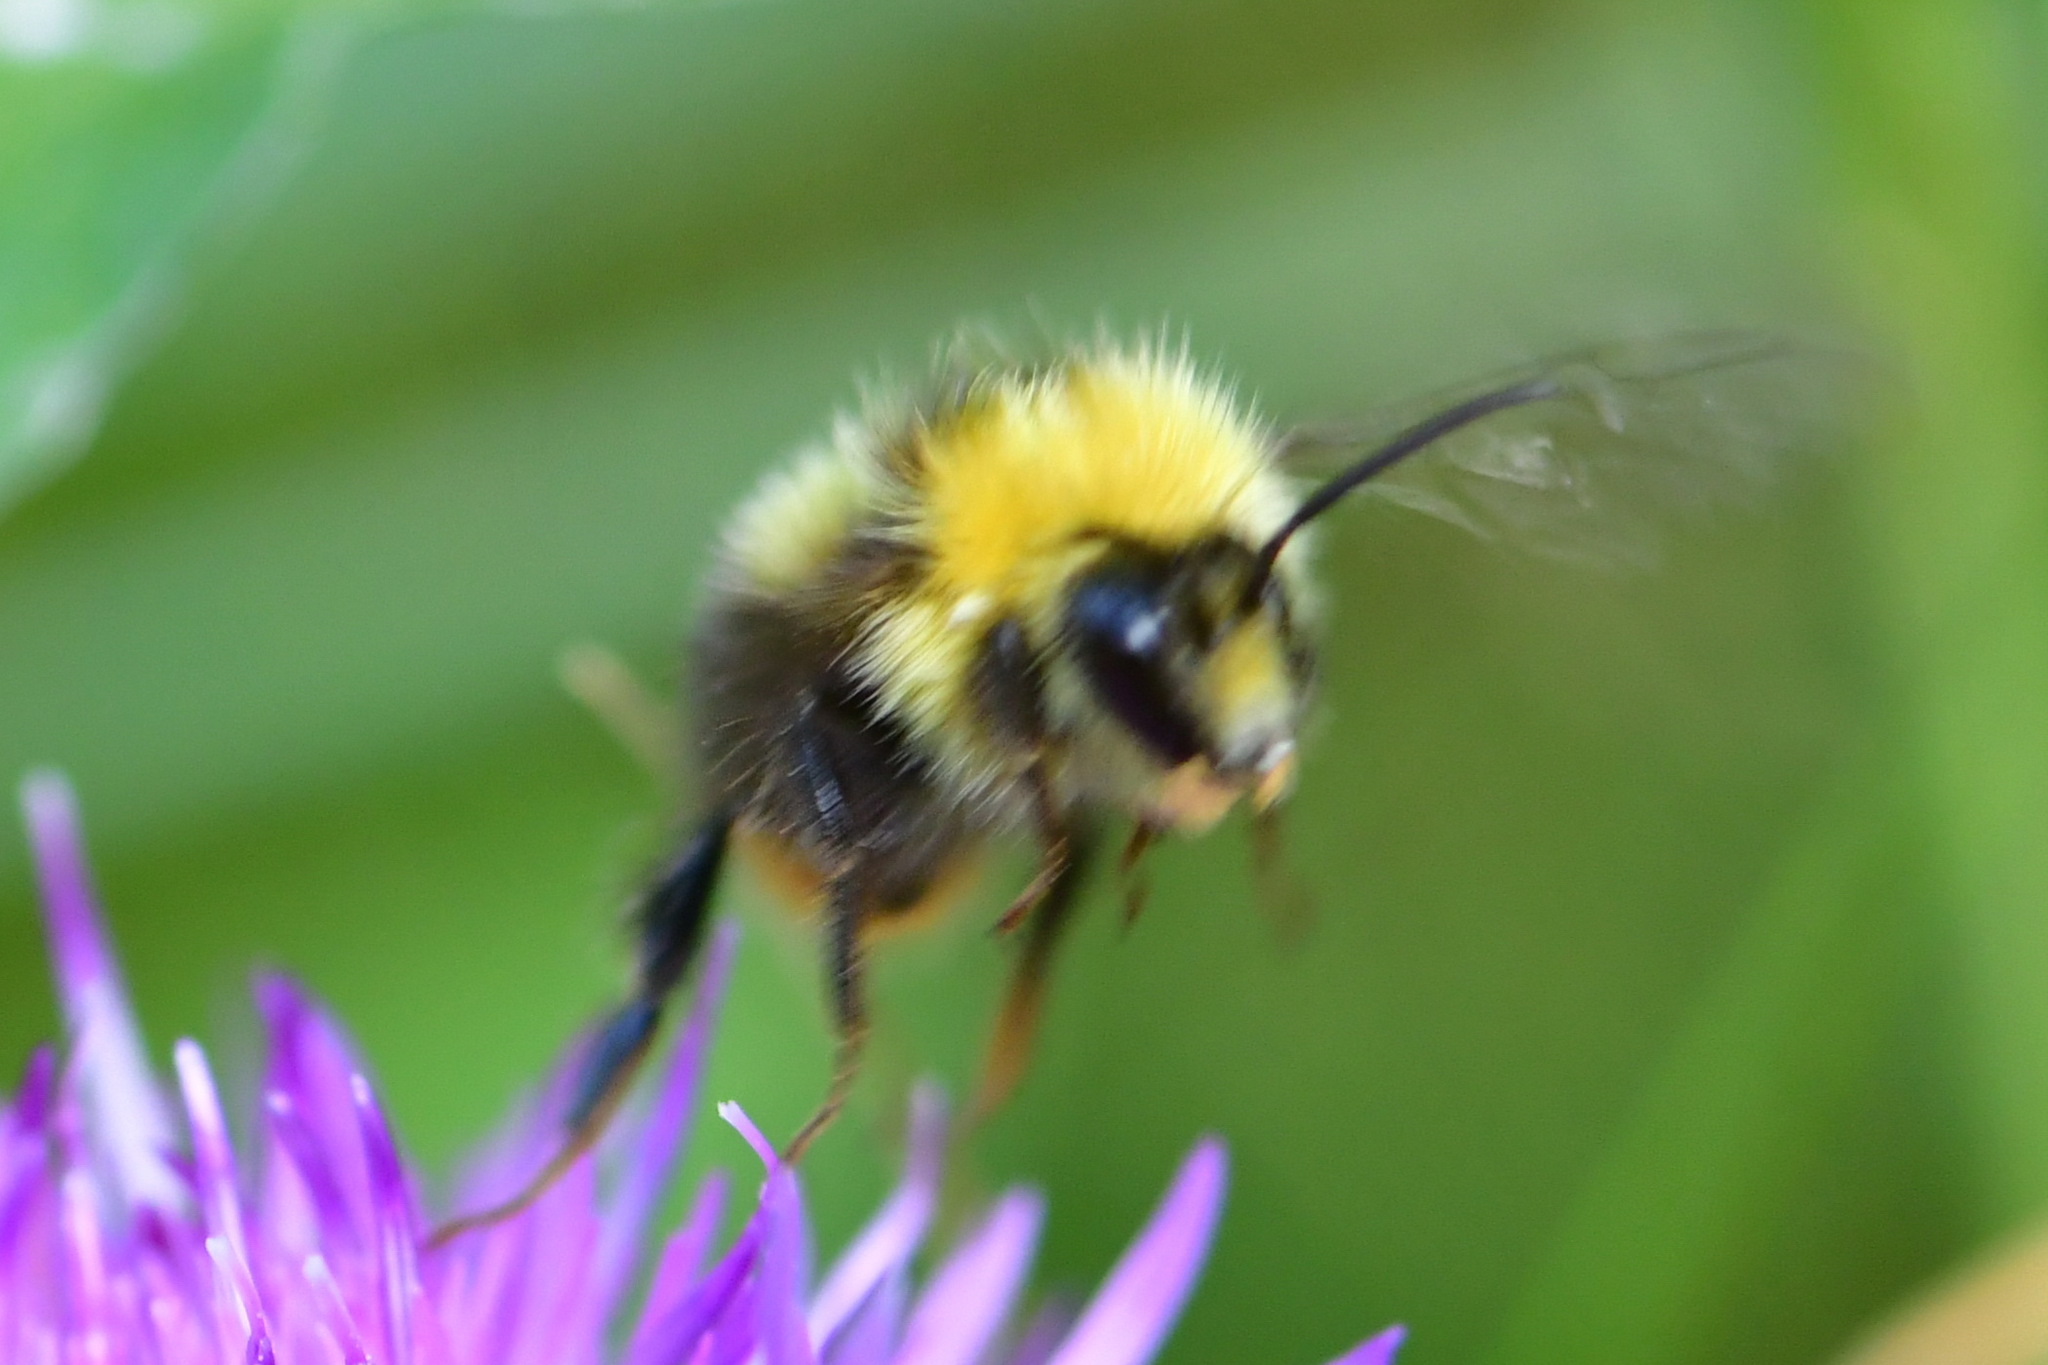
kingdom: Animalia
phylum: Arthropoda
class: Insecta
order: Hymenoptera
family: Apidae
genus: Bombus
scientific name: Bombus pratorum
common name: Early humble-bee
